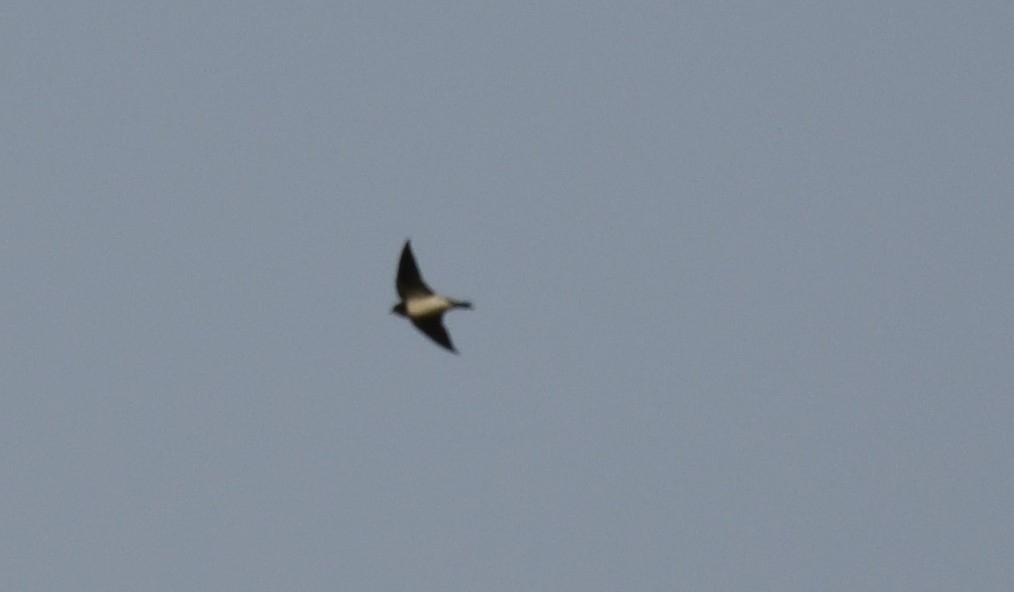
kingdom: Animalia
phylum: Chordata
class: Aves
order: Passeriformes
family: Hirundinidae
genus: Hirundo
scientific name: Hirundo rustica
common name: Barn swallow
